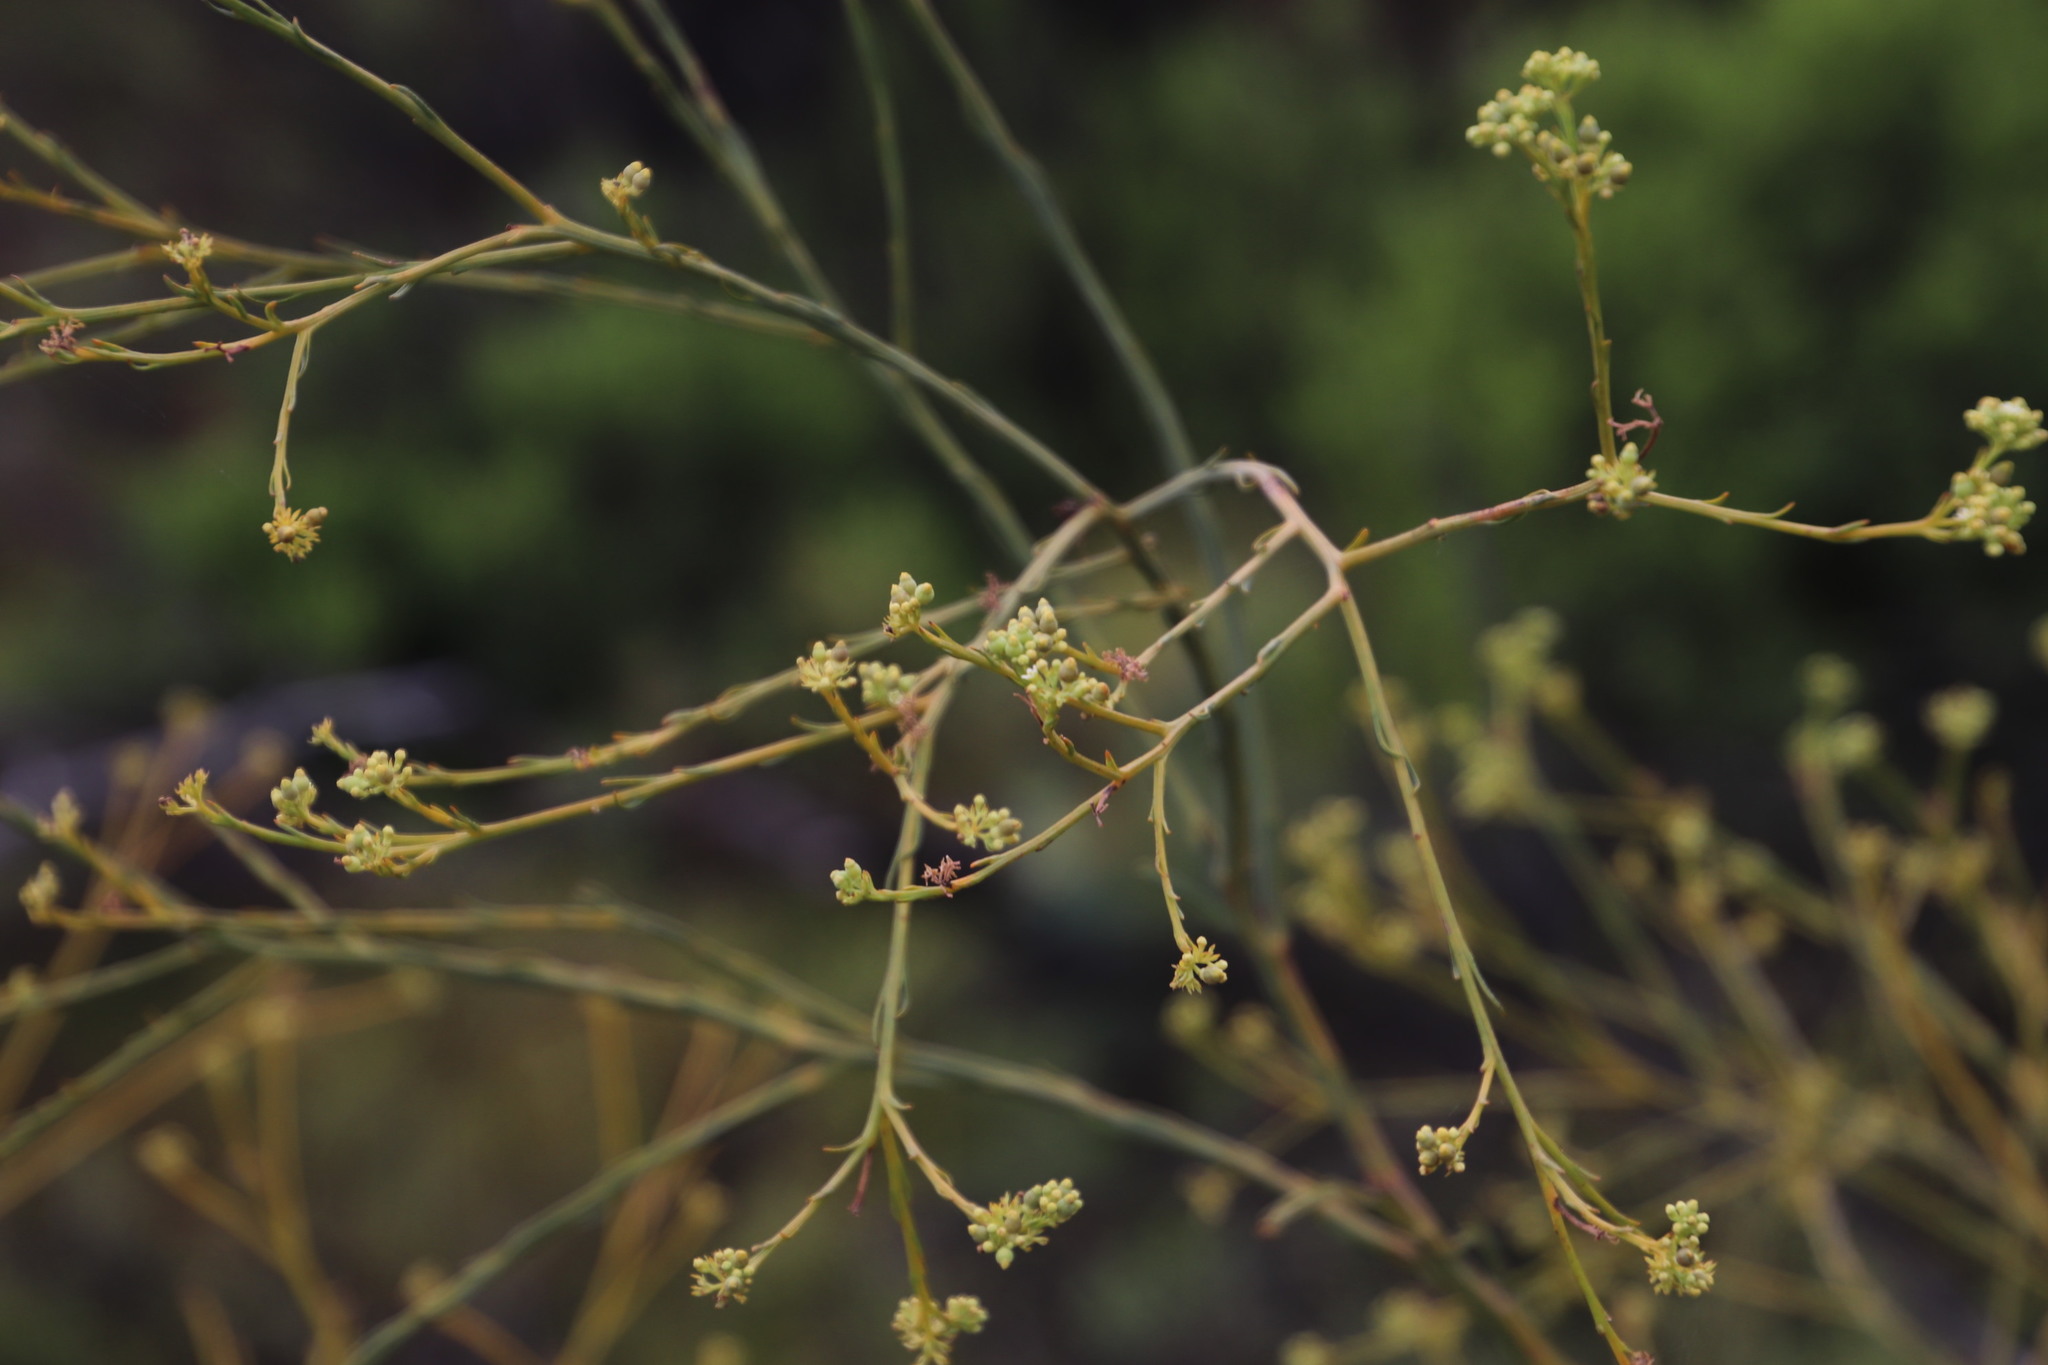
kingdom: Plantae
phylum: Tracheophyta
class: Magnoliopsida
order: Santalales
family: Thesiaceae
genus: Thesium
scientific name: Thesium strictum
